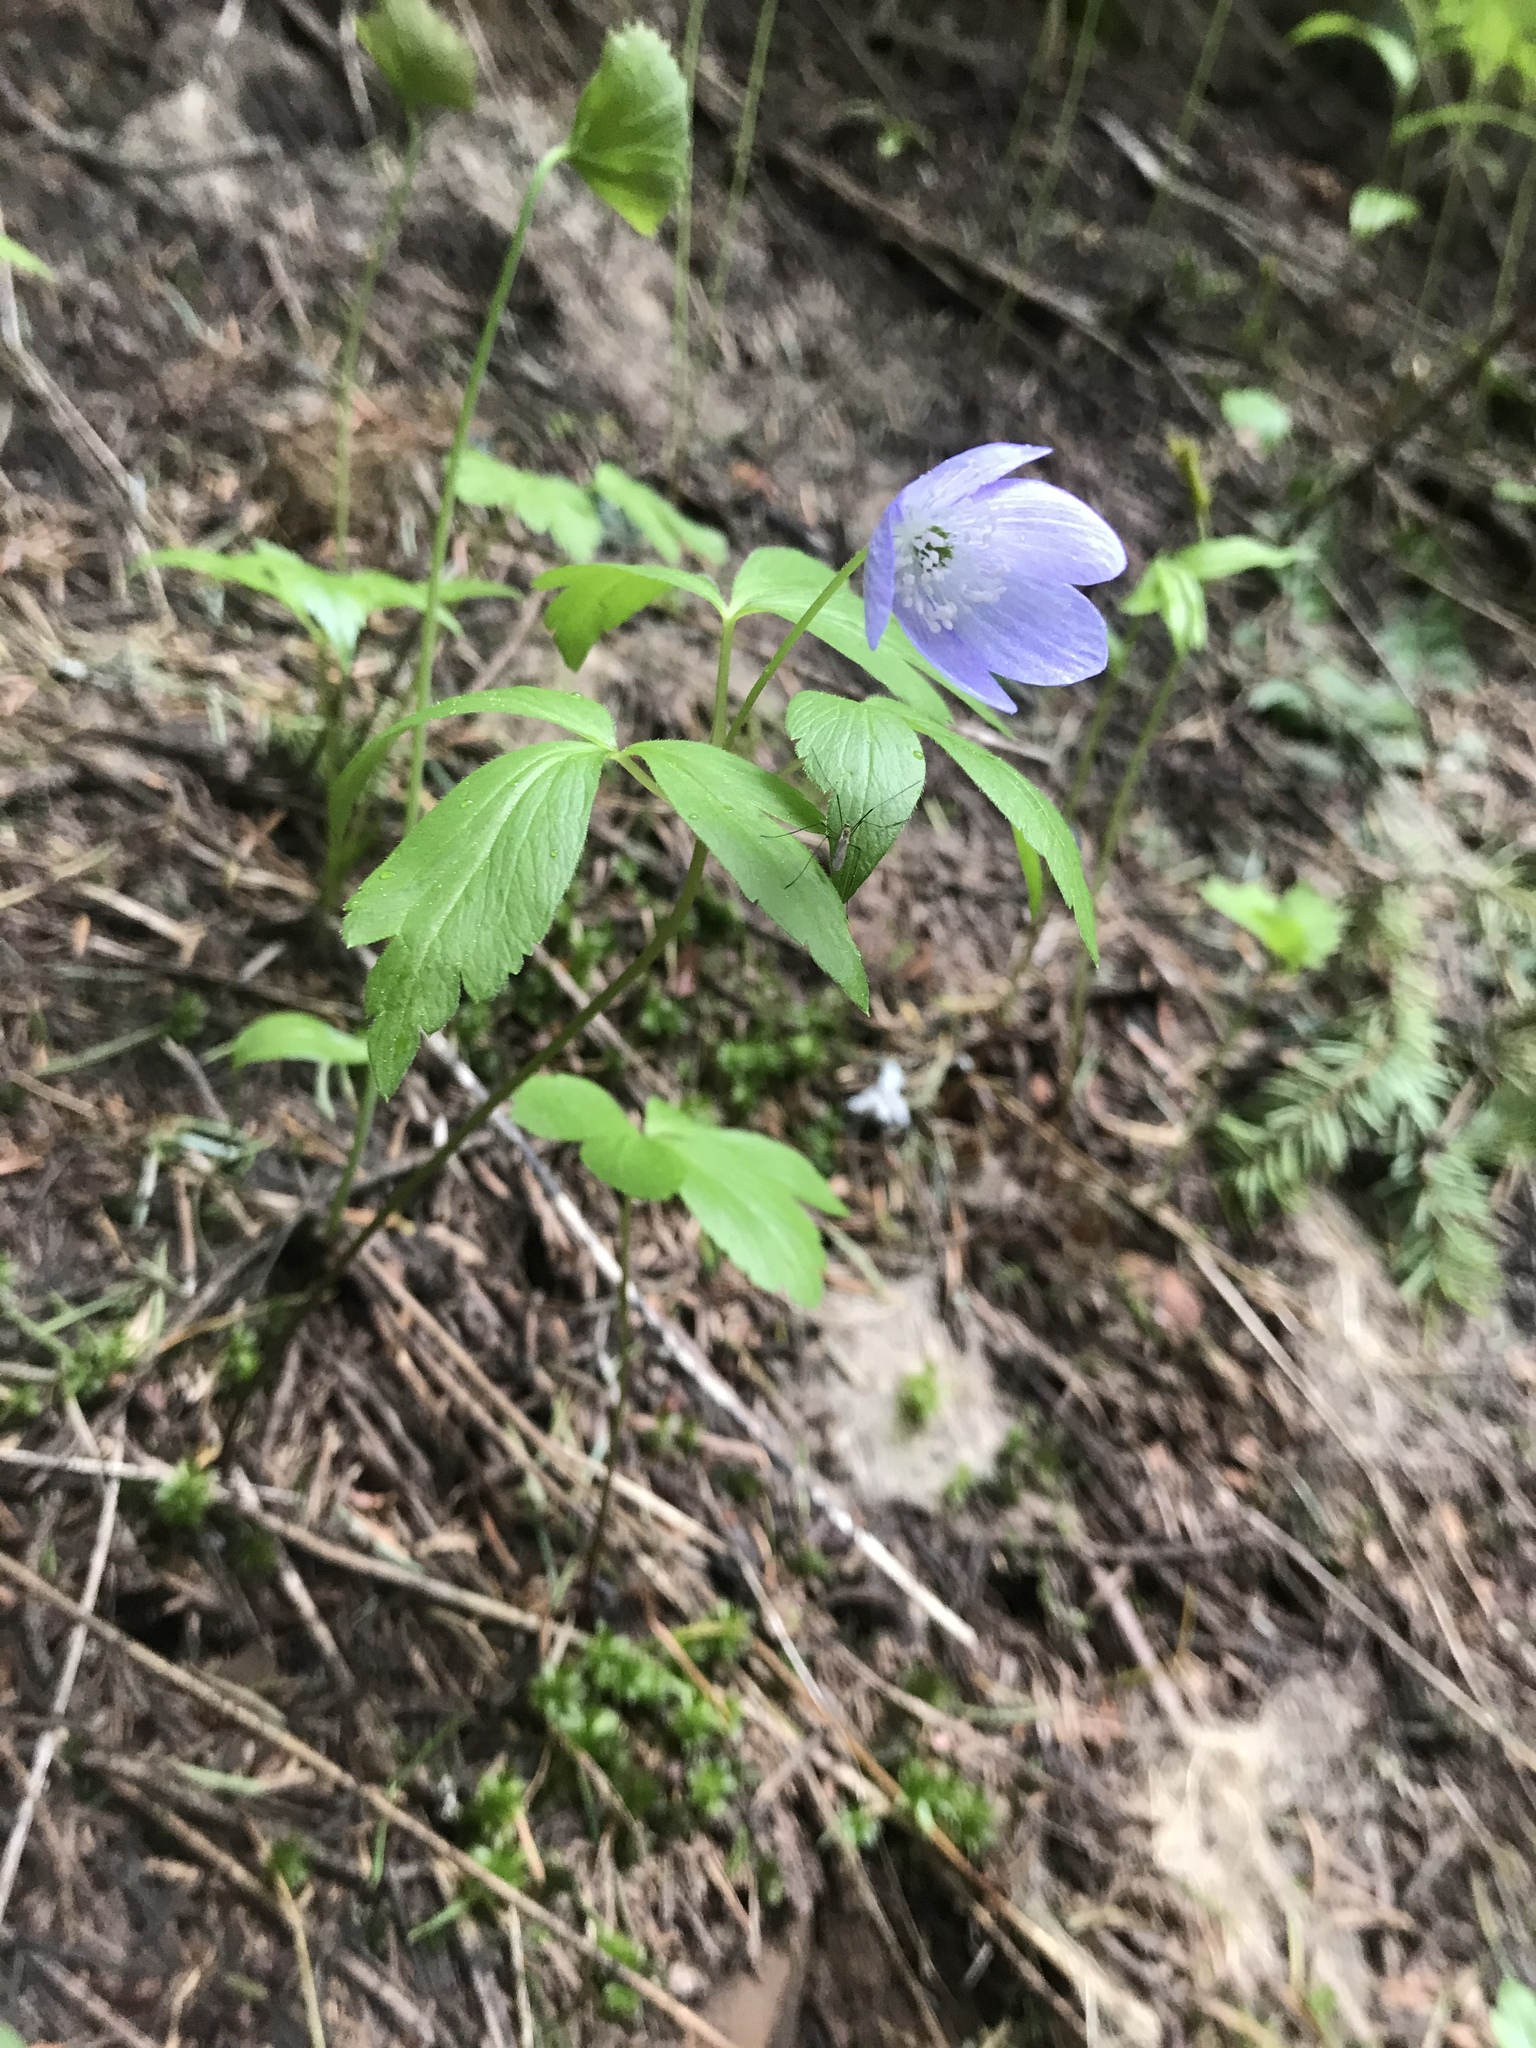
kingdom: Plantae
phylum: Tracheophyta
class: Magnoliopsida
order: Ranunculales
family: Ranunculaceae
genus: Anemone
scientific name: Anemone oregana
